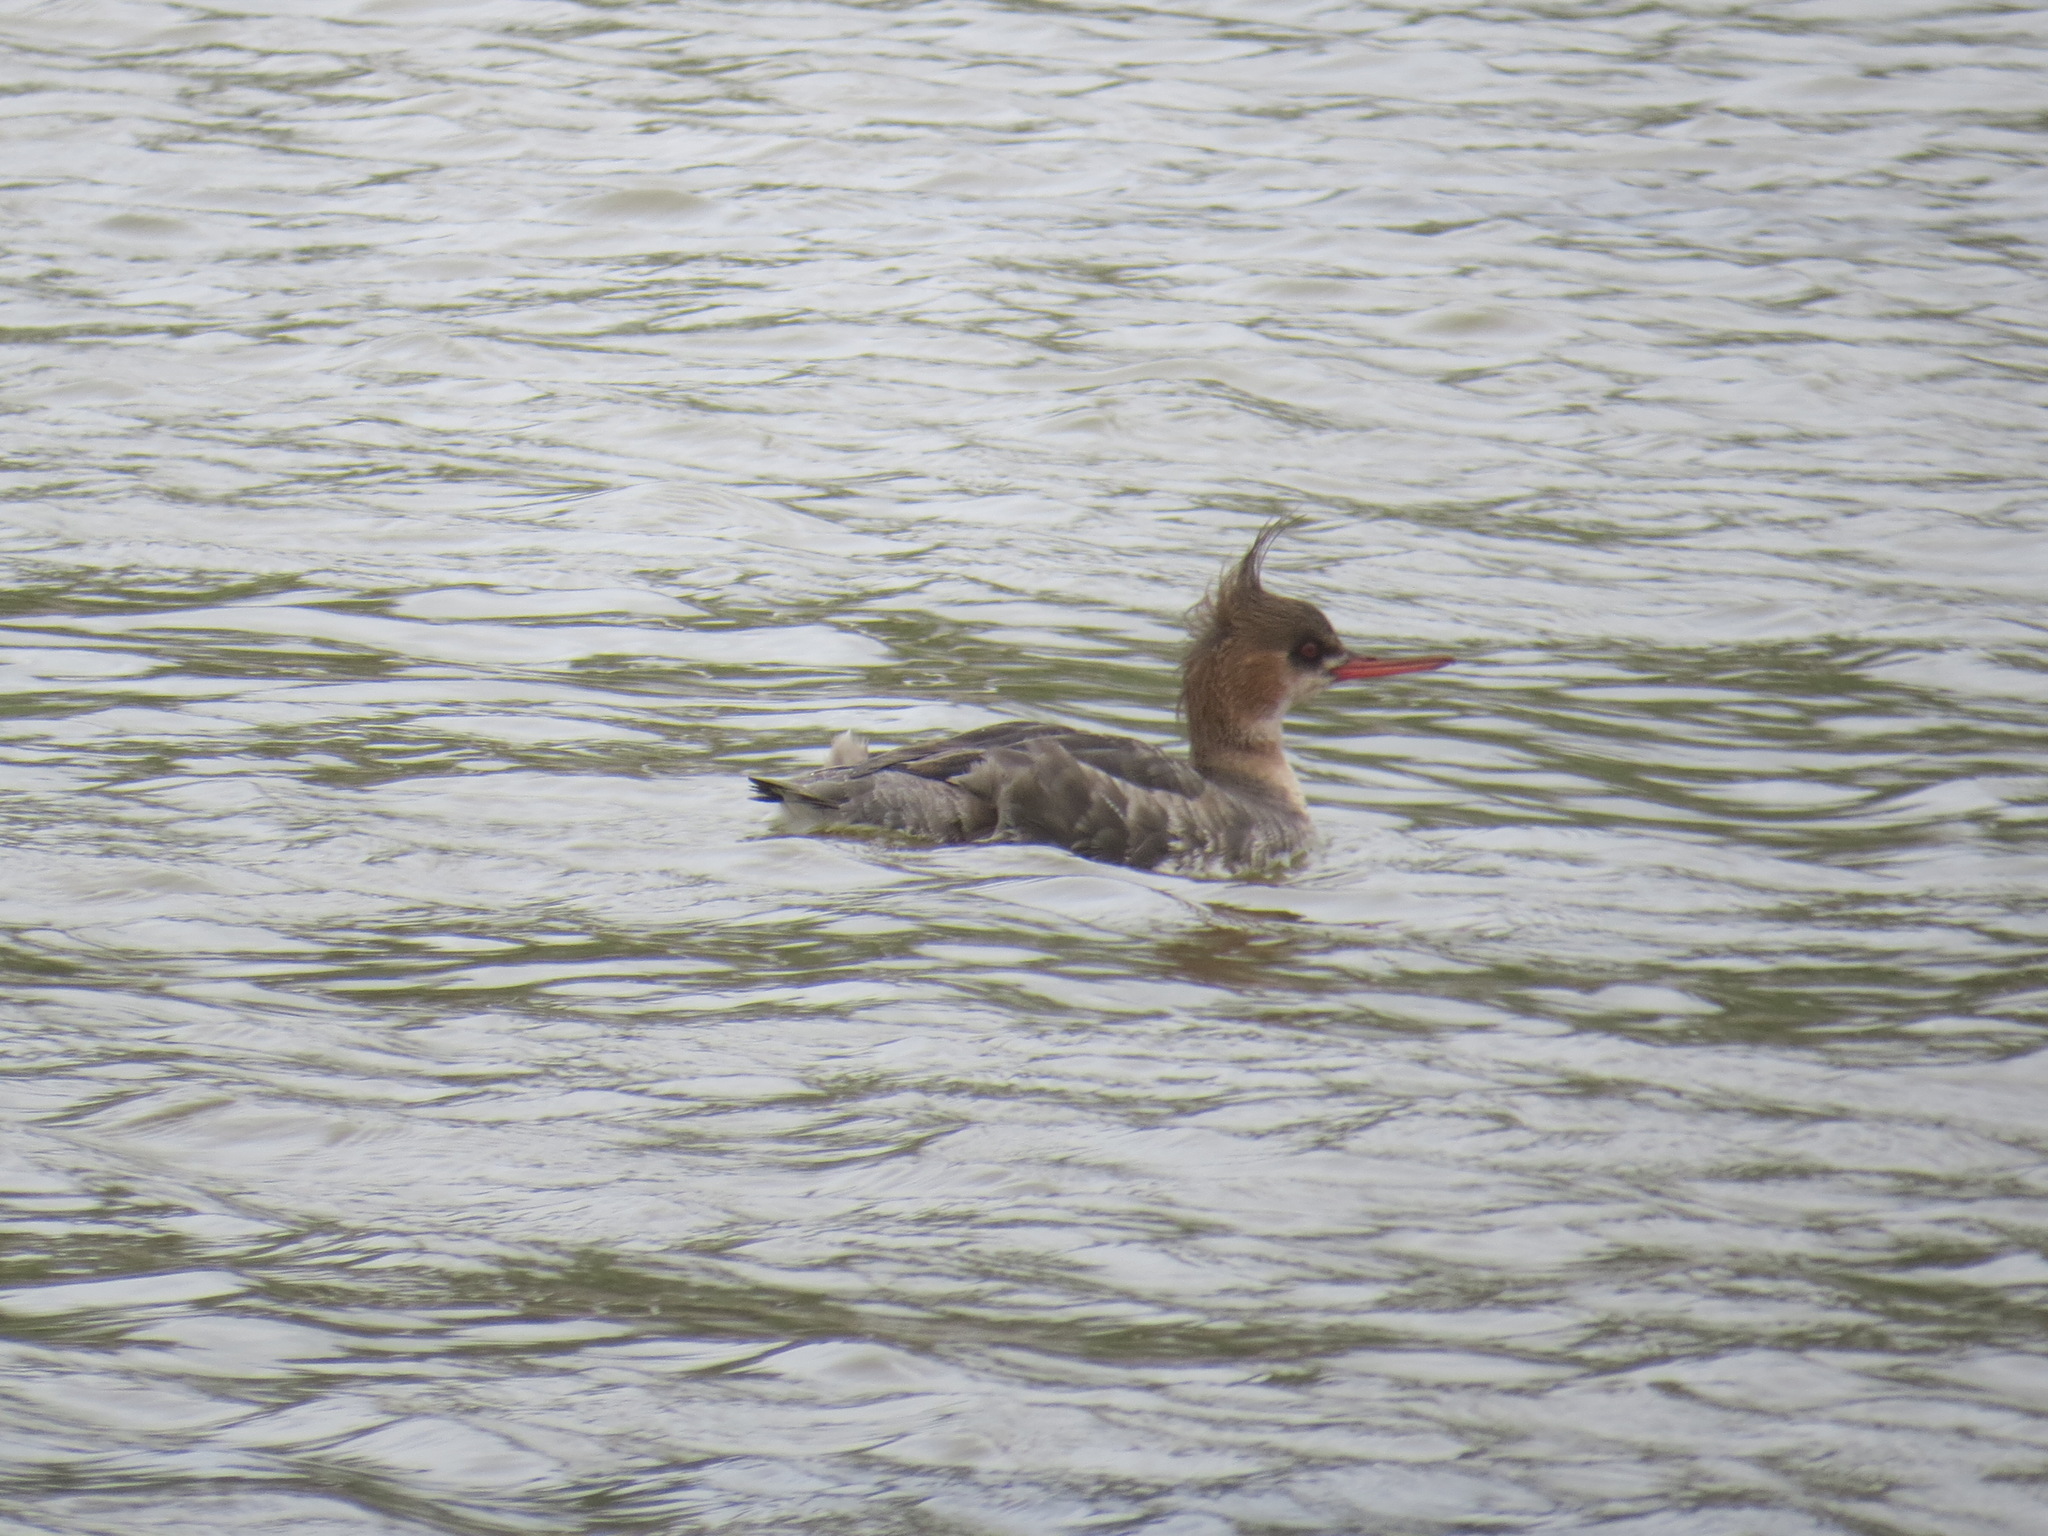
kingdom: Animalia
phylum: Chordata
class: Aves
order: Anseriformes
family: Anatidae
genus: Mergus
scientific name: Mergus serrator
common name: Red-breasted merganser
